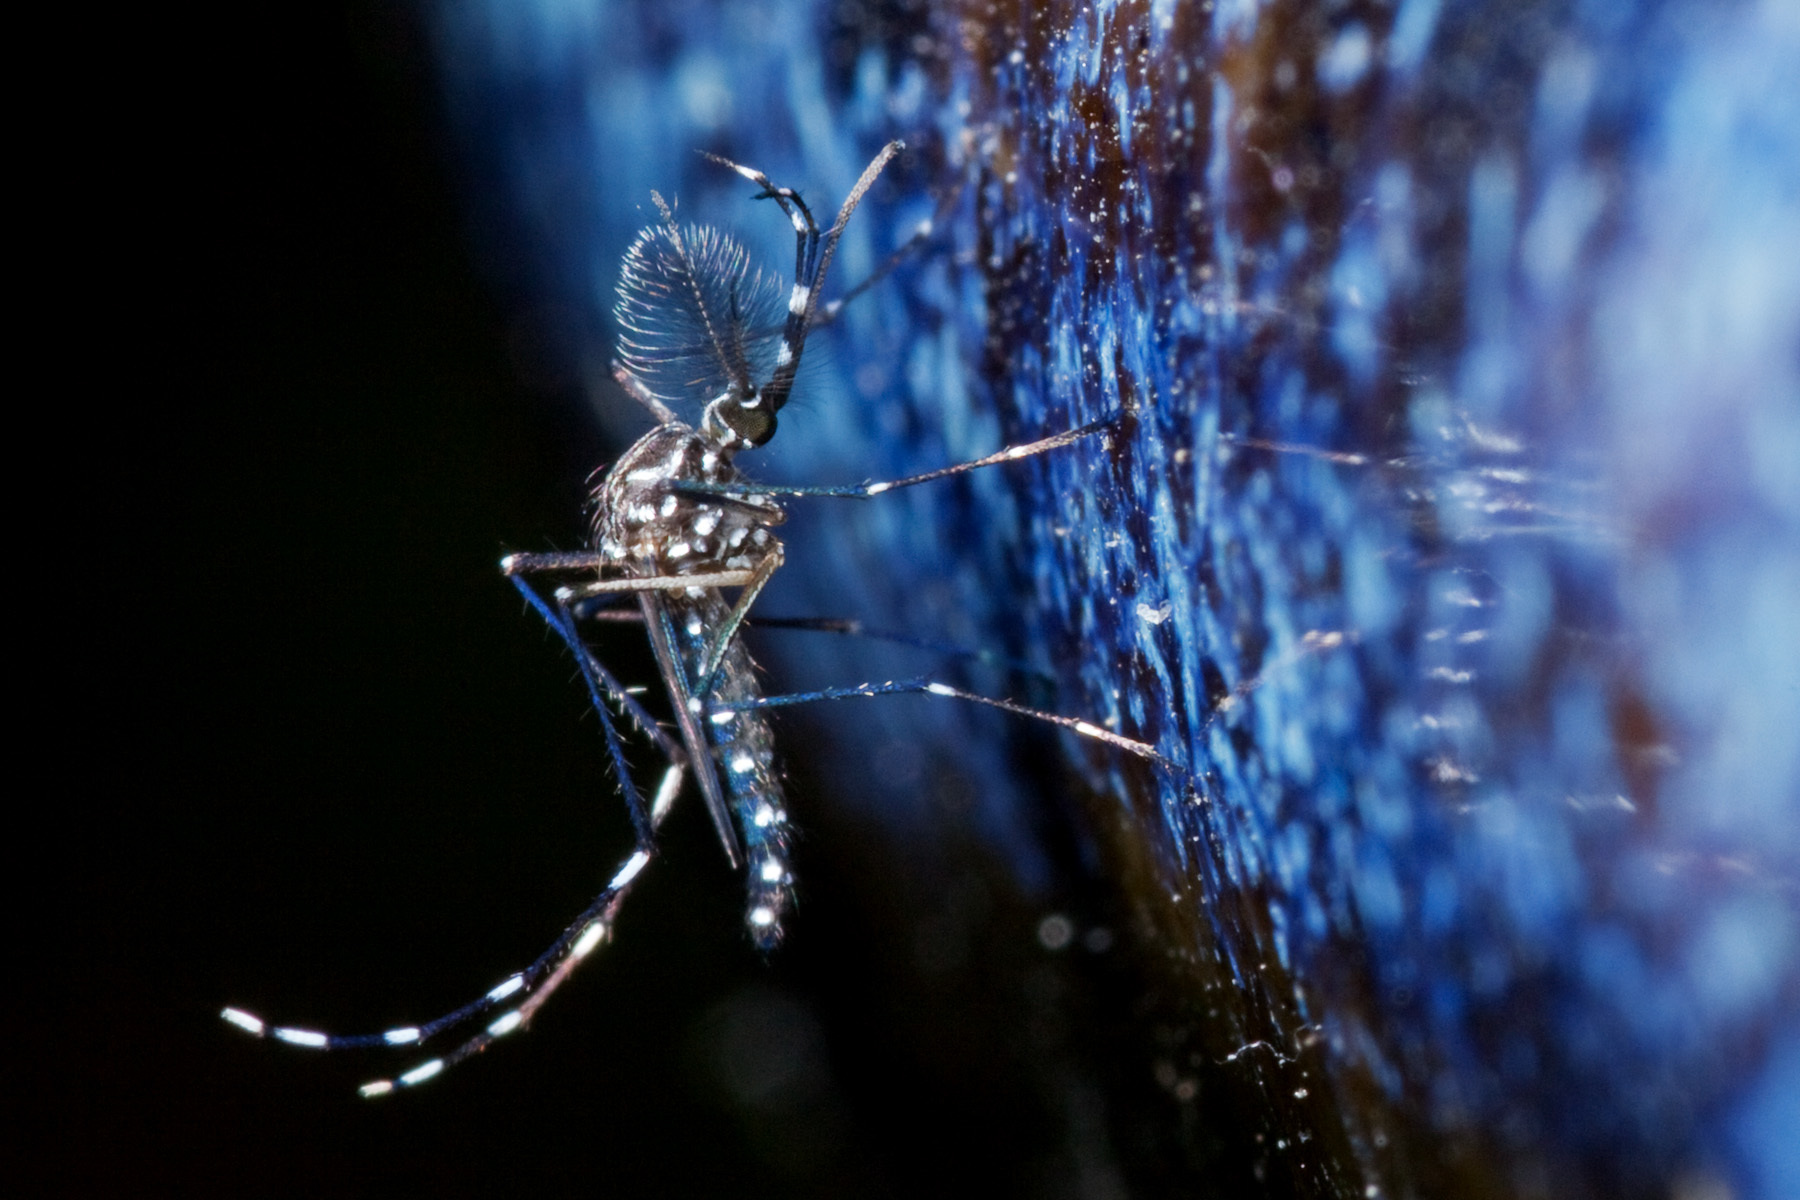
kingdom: Animalia
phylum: Arthropoda
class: Insecta
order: Diptera
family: Culicidae
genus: Aedes
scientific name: Aedes aegypti
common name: Yellow fever mosquito
